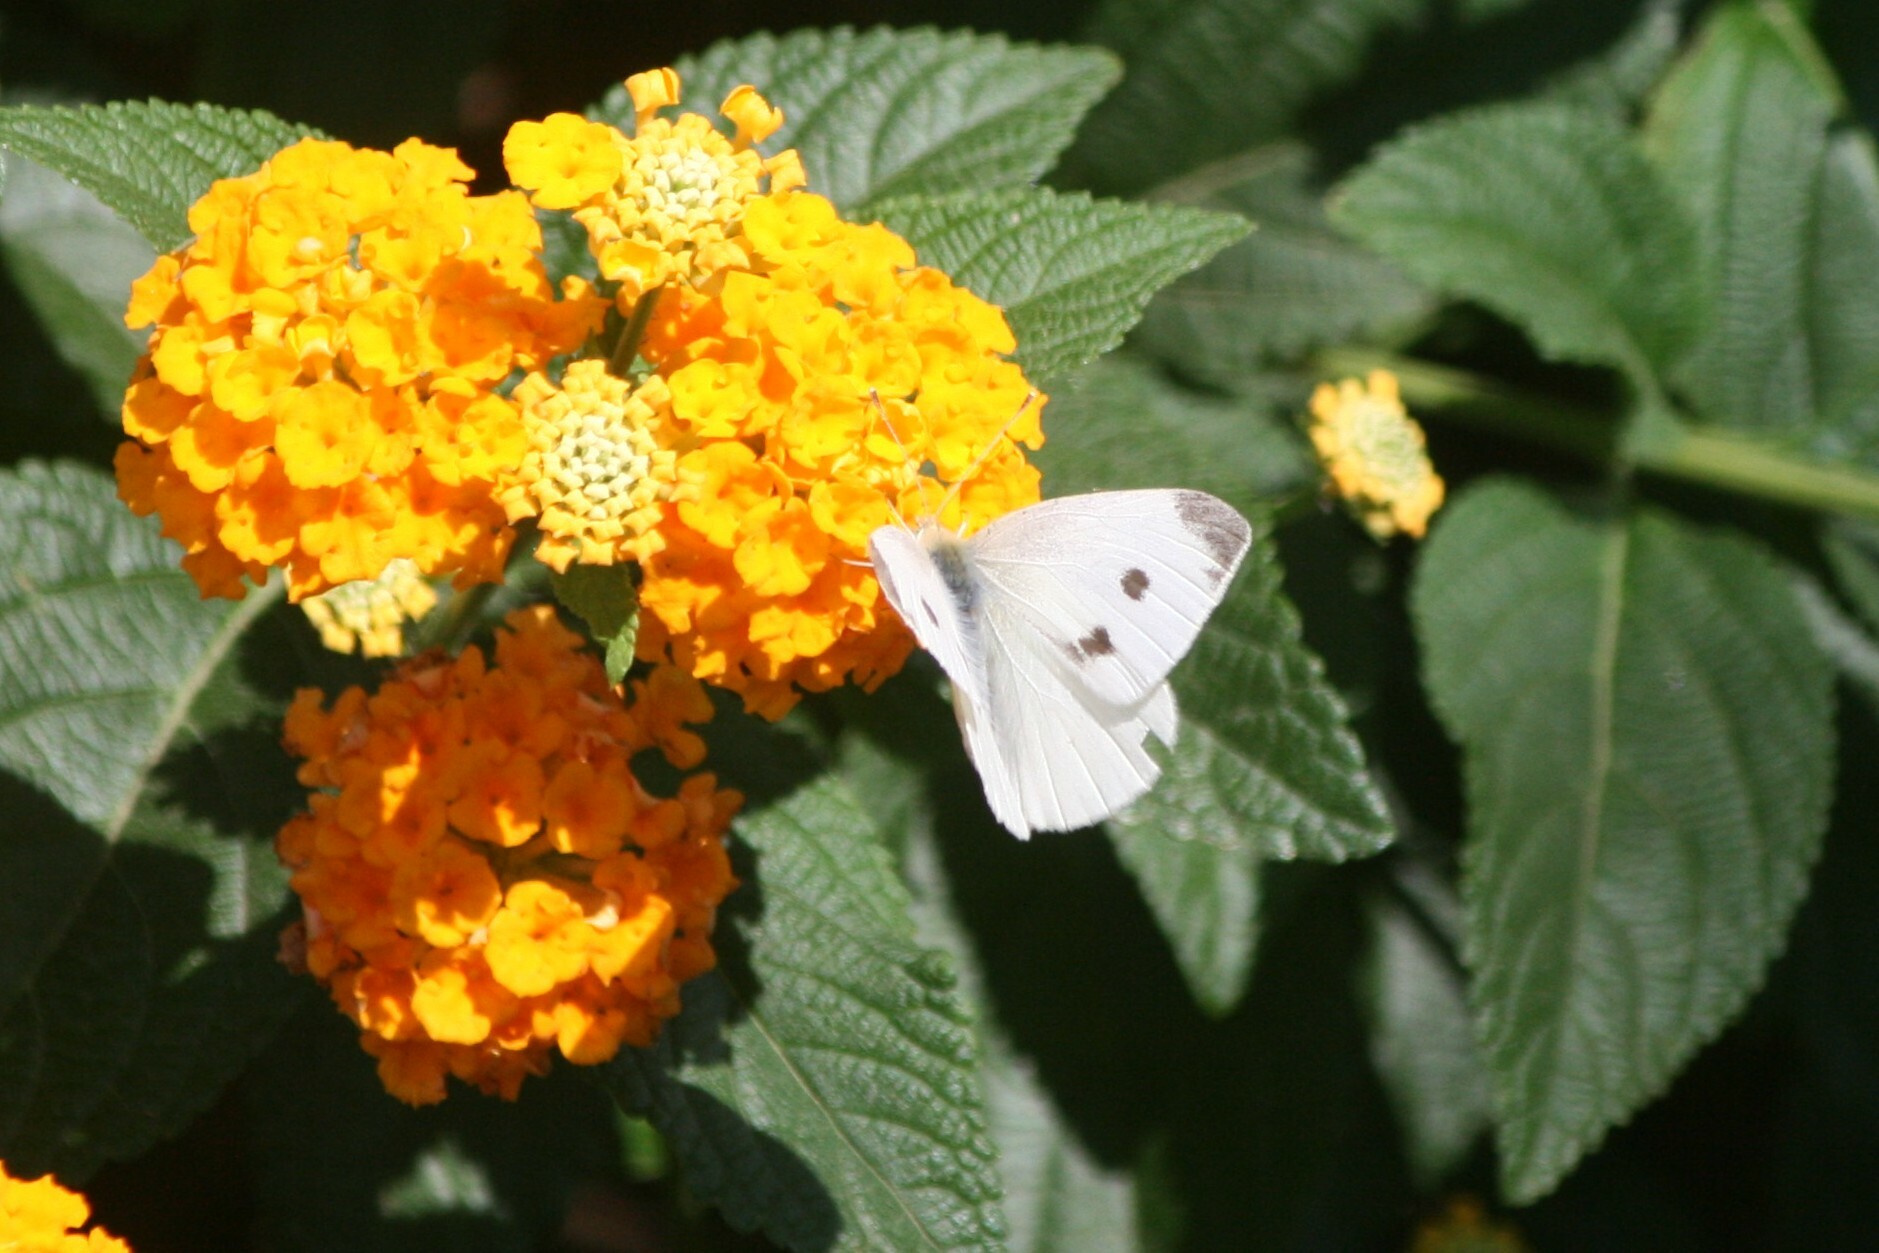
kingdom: Animalia
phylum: Arthropoda
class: Insecta
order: Lepidoptera
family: Pieridae
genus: Pieris
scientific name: Pieris rapae
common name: Small white
